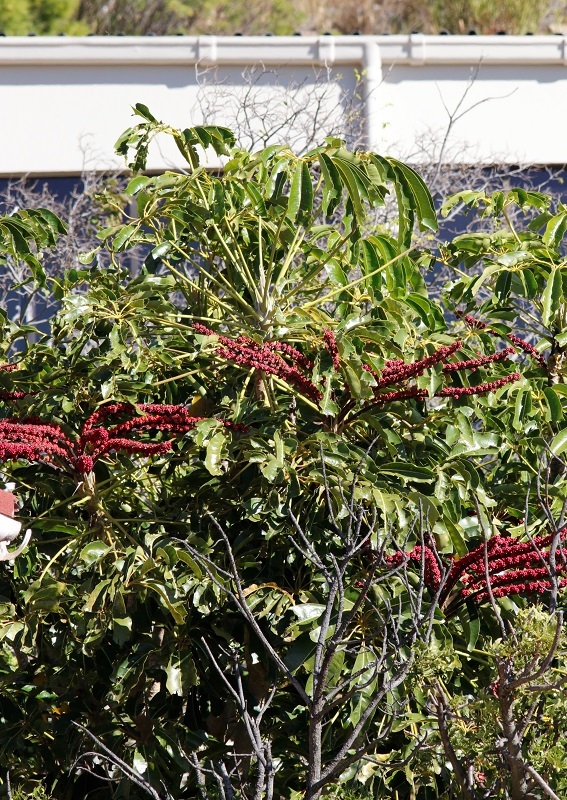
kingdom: Plantae
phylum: Tracheophyta
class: Magnoliopsida
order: Apiales
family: Araliaceae
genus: Heptapleurum
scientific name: Heptapleurum actinophyllum
